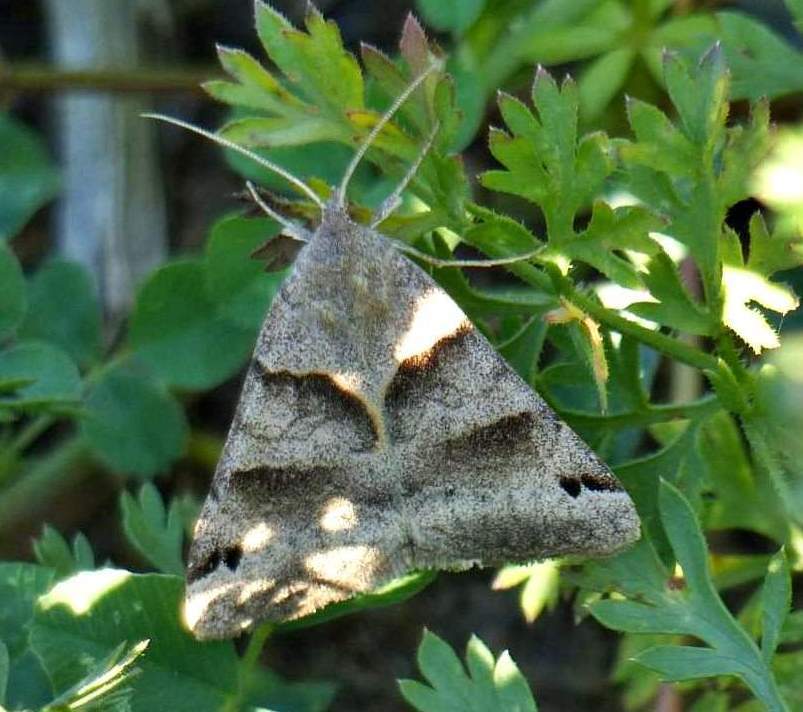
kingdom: Animalia
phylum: Arthropoda
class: Insecta
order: Lepidoptera
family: Erebidae
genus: Caenurgina
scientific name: Caenurgina crassiuscula
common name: Double-barred
